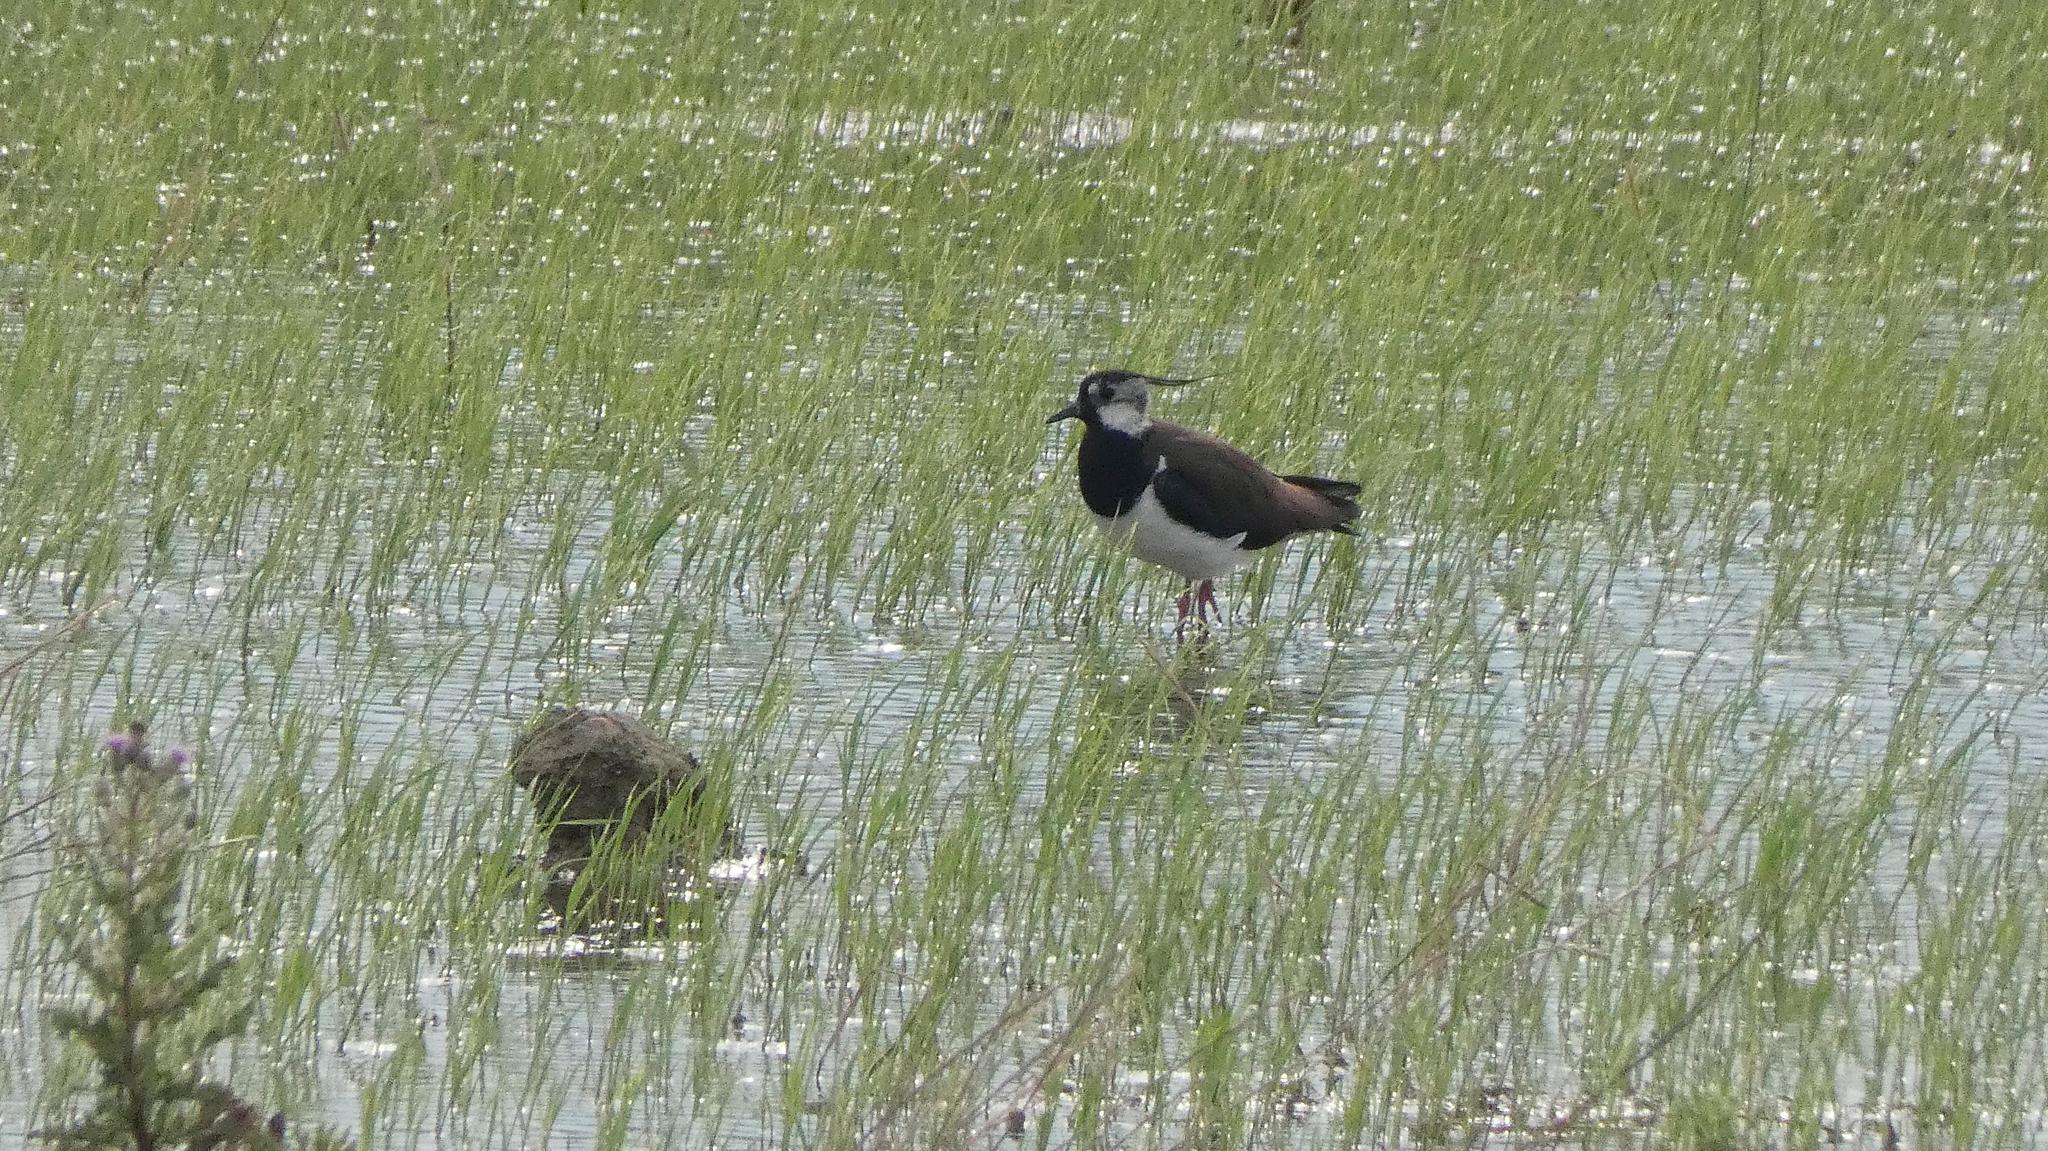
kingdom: Animalia
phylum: Chordata
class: Aves
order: Charadriiformes
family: Charadriidae
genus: Vanellus
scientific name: Vanellus vanellus
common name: Northern lapwing
